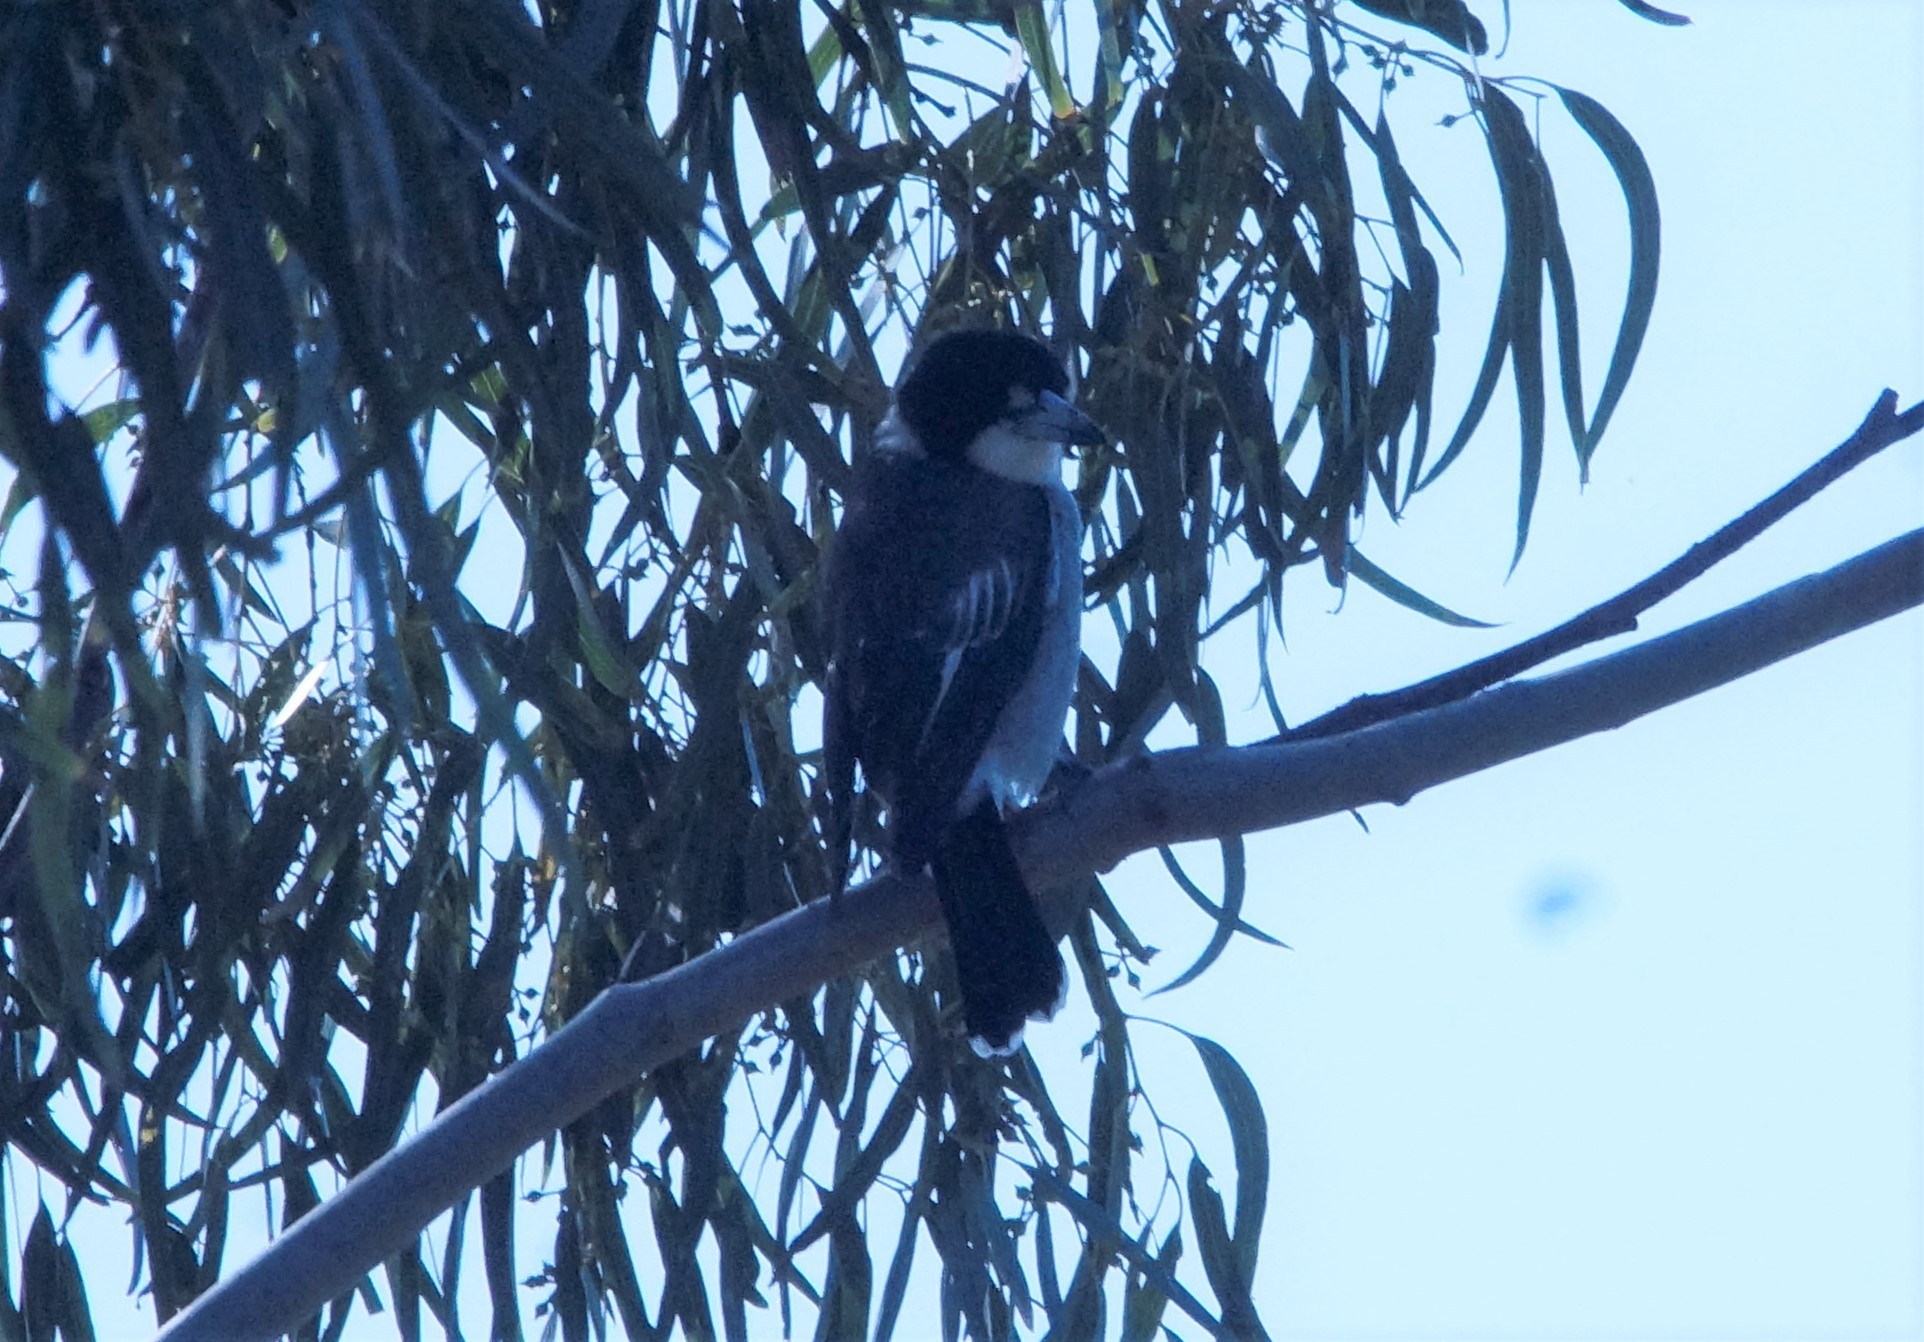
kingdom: Animalia
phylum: Chordata
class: Aves
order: Passeriformes
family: Cracticidae
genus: Cracticus
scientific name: Cracticus torquatus
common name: Grey butcherbird
